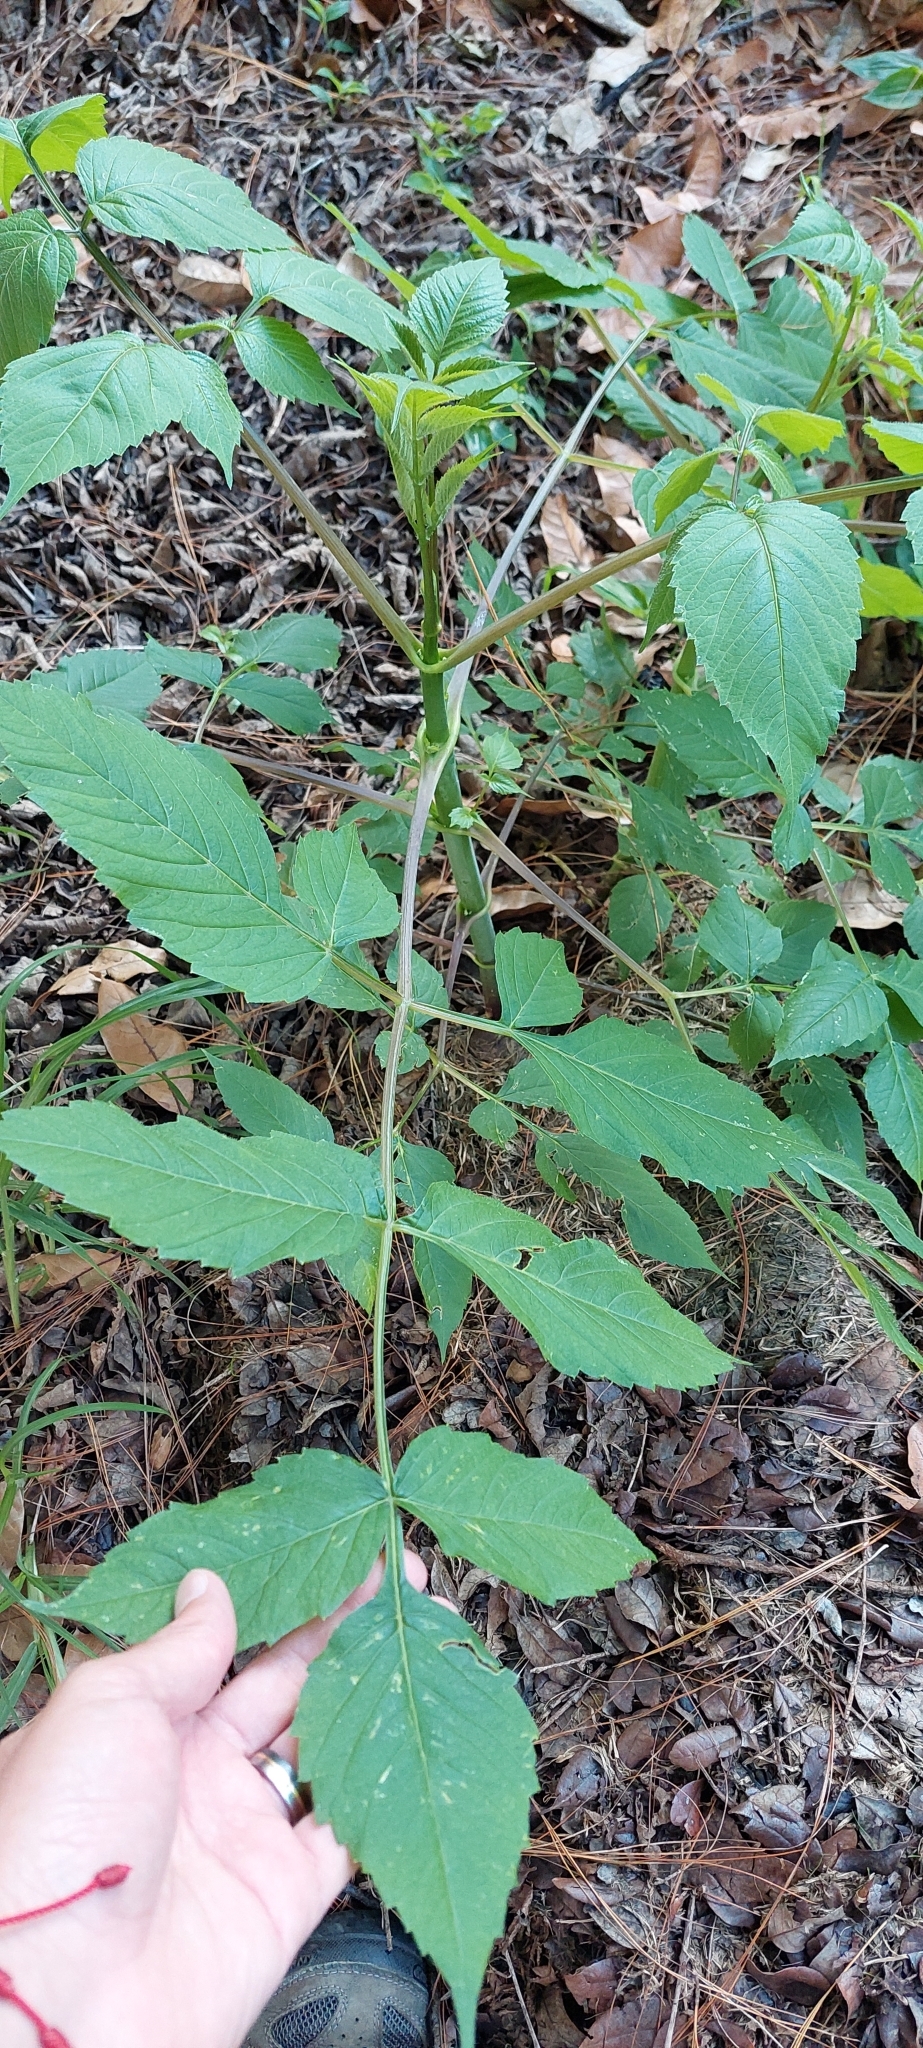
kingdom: Plantae
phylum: Tracheophyta
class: Magnoliopsida
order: Asterales
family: Asteraceae
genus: Dahlia
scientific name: Dahlia imperialis
